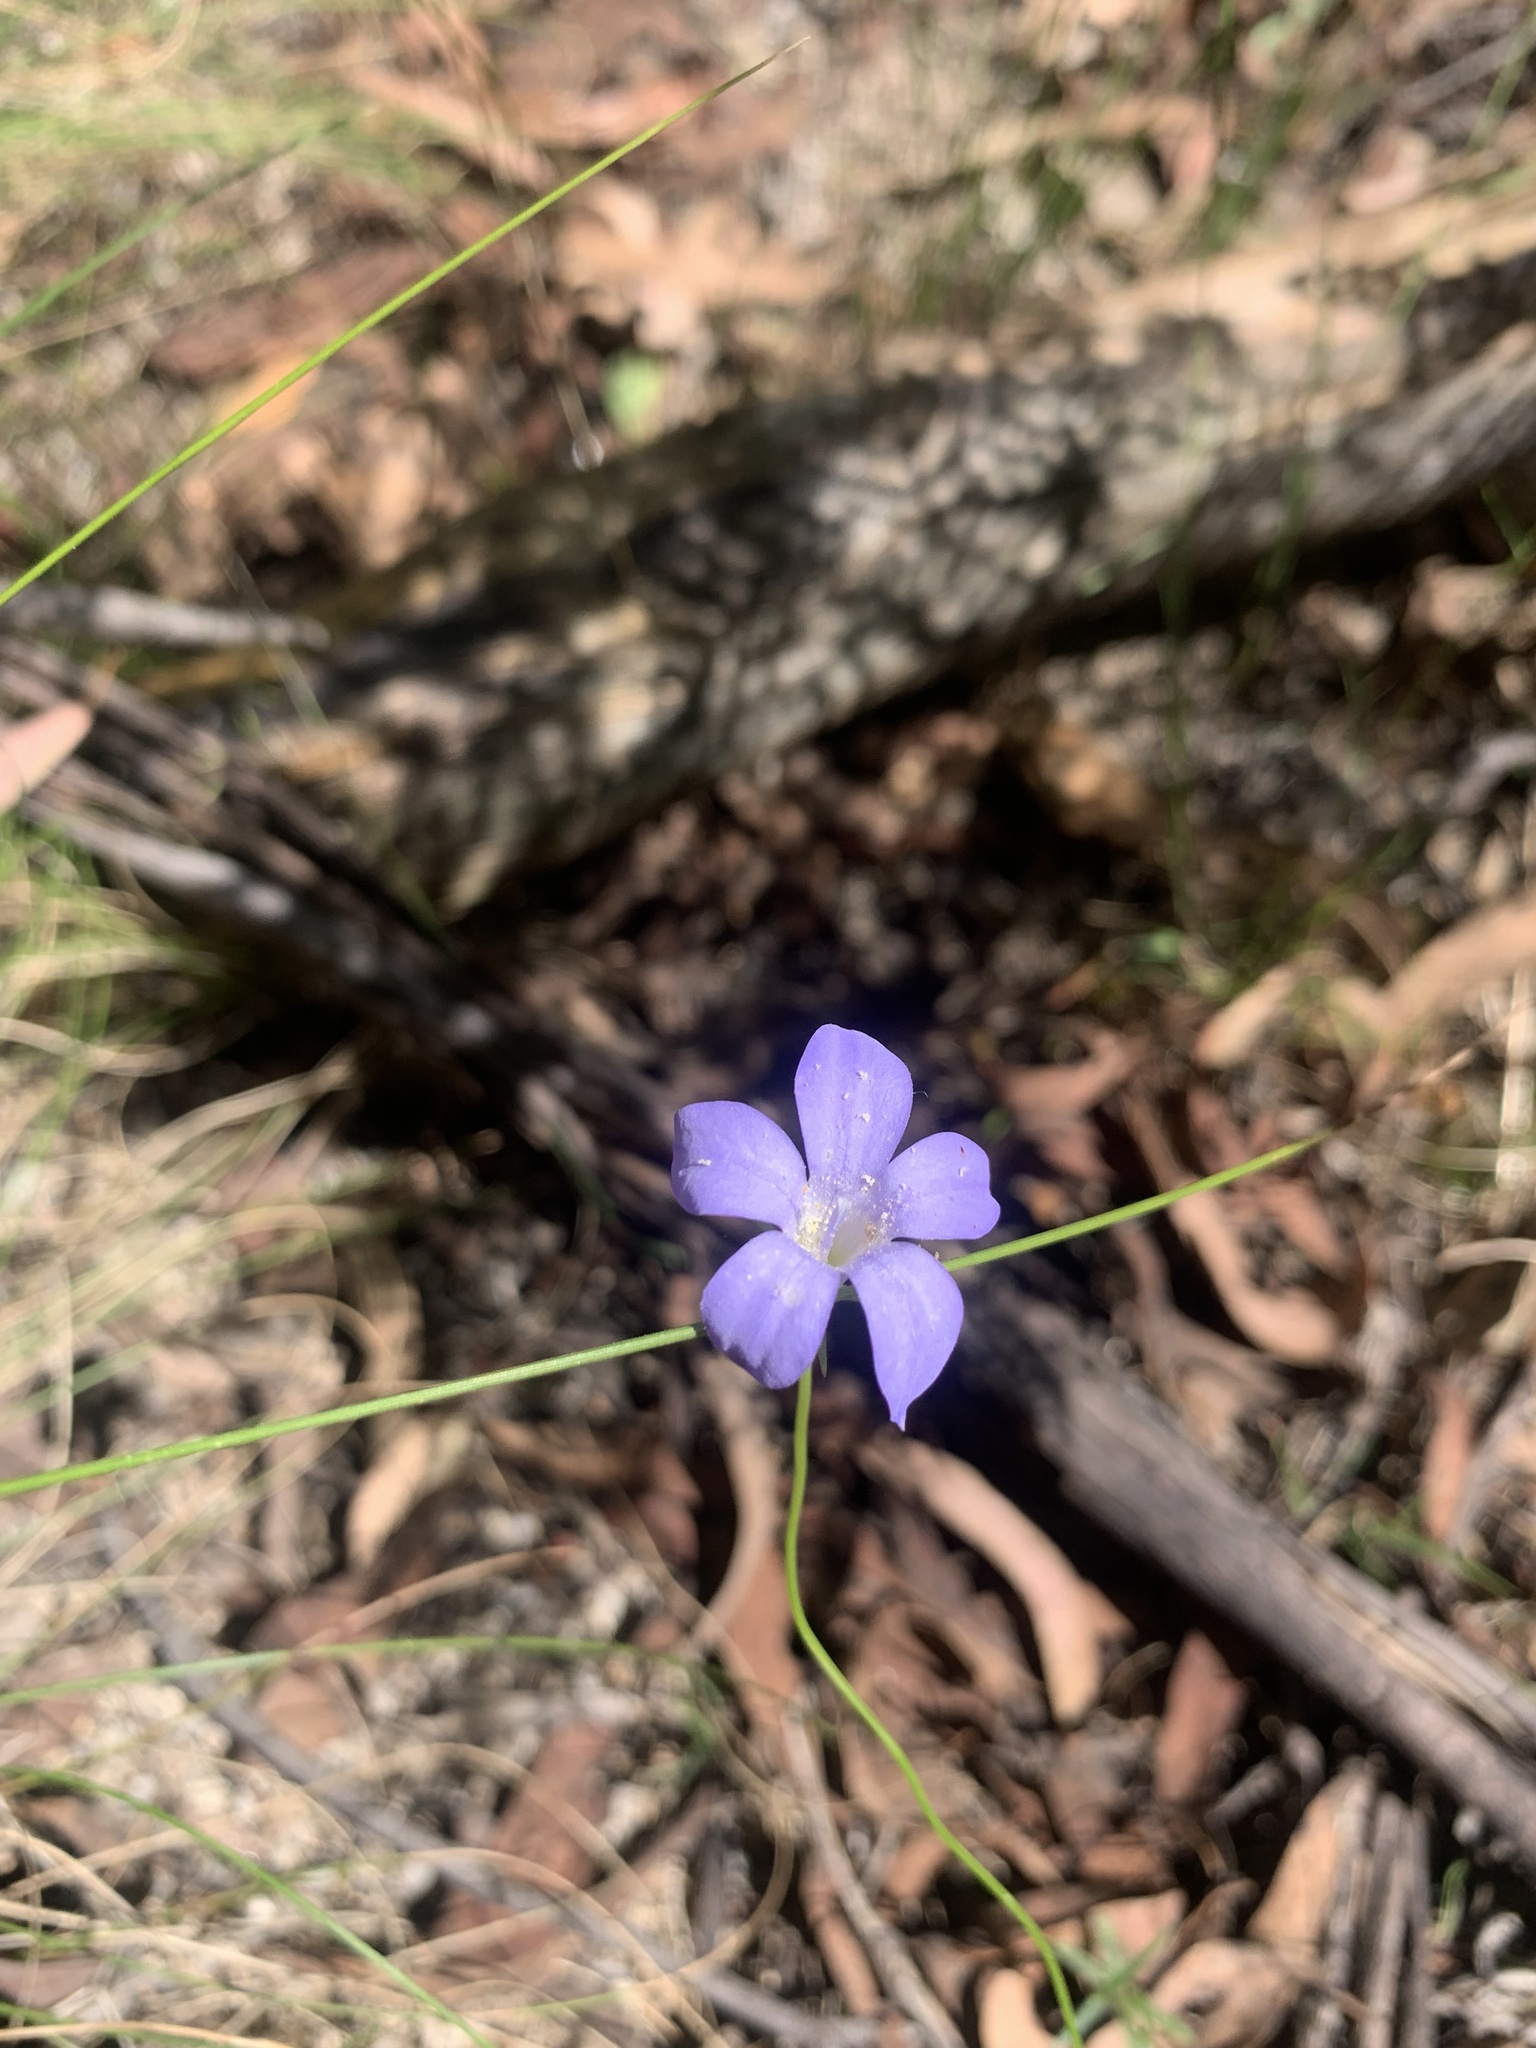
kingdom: Plantae
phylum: Tracheophyta
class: Magnoliopsida
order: Asterales
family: Campanulaceae
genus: Wahlenbergia
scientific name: Wahlenbergia
